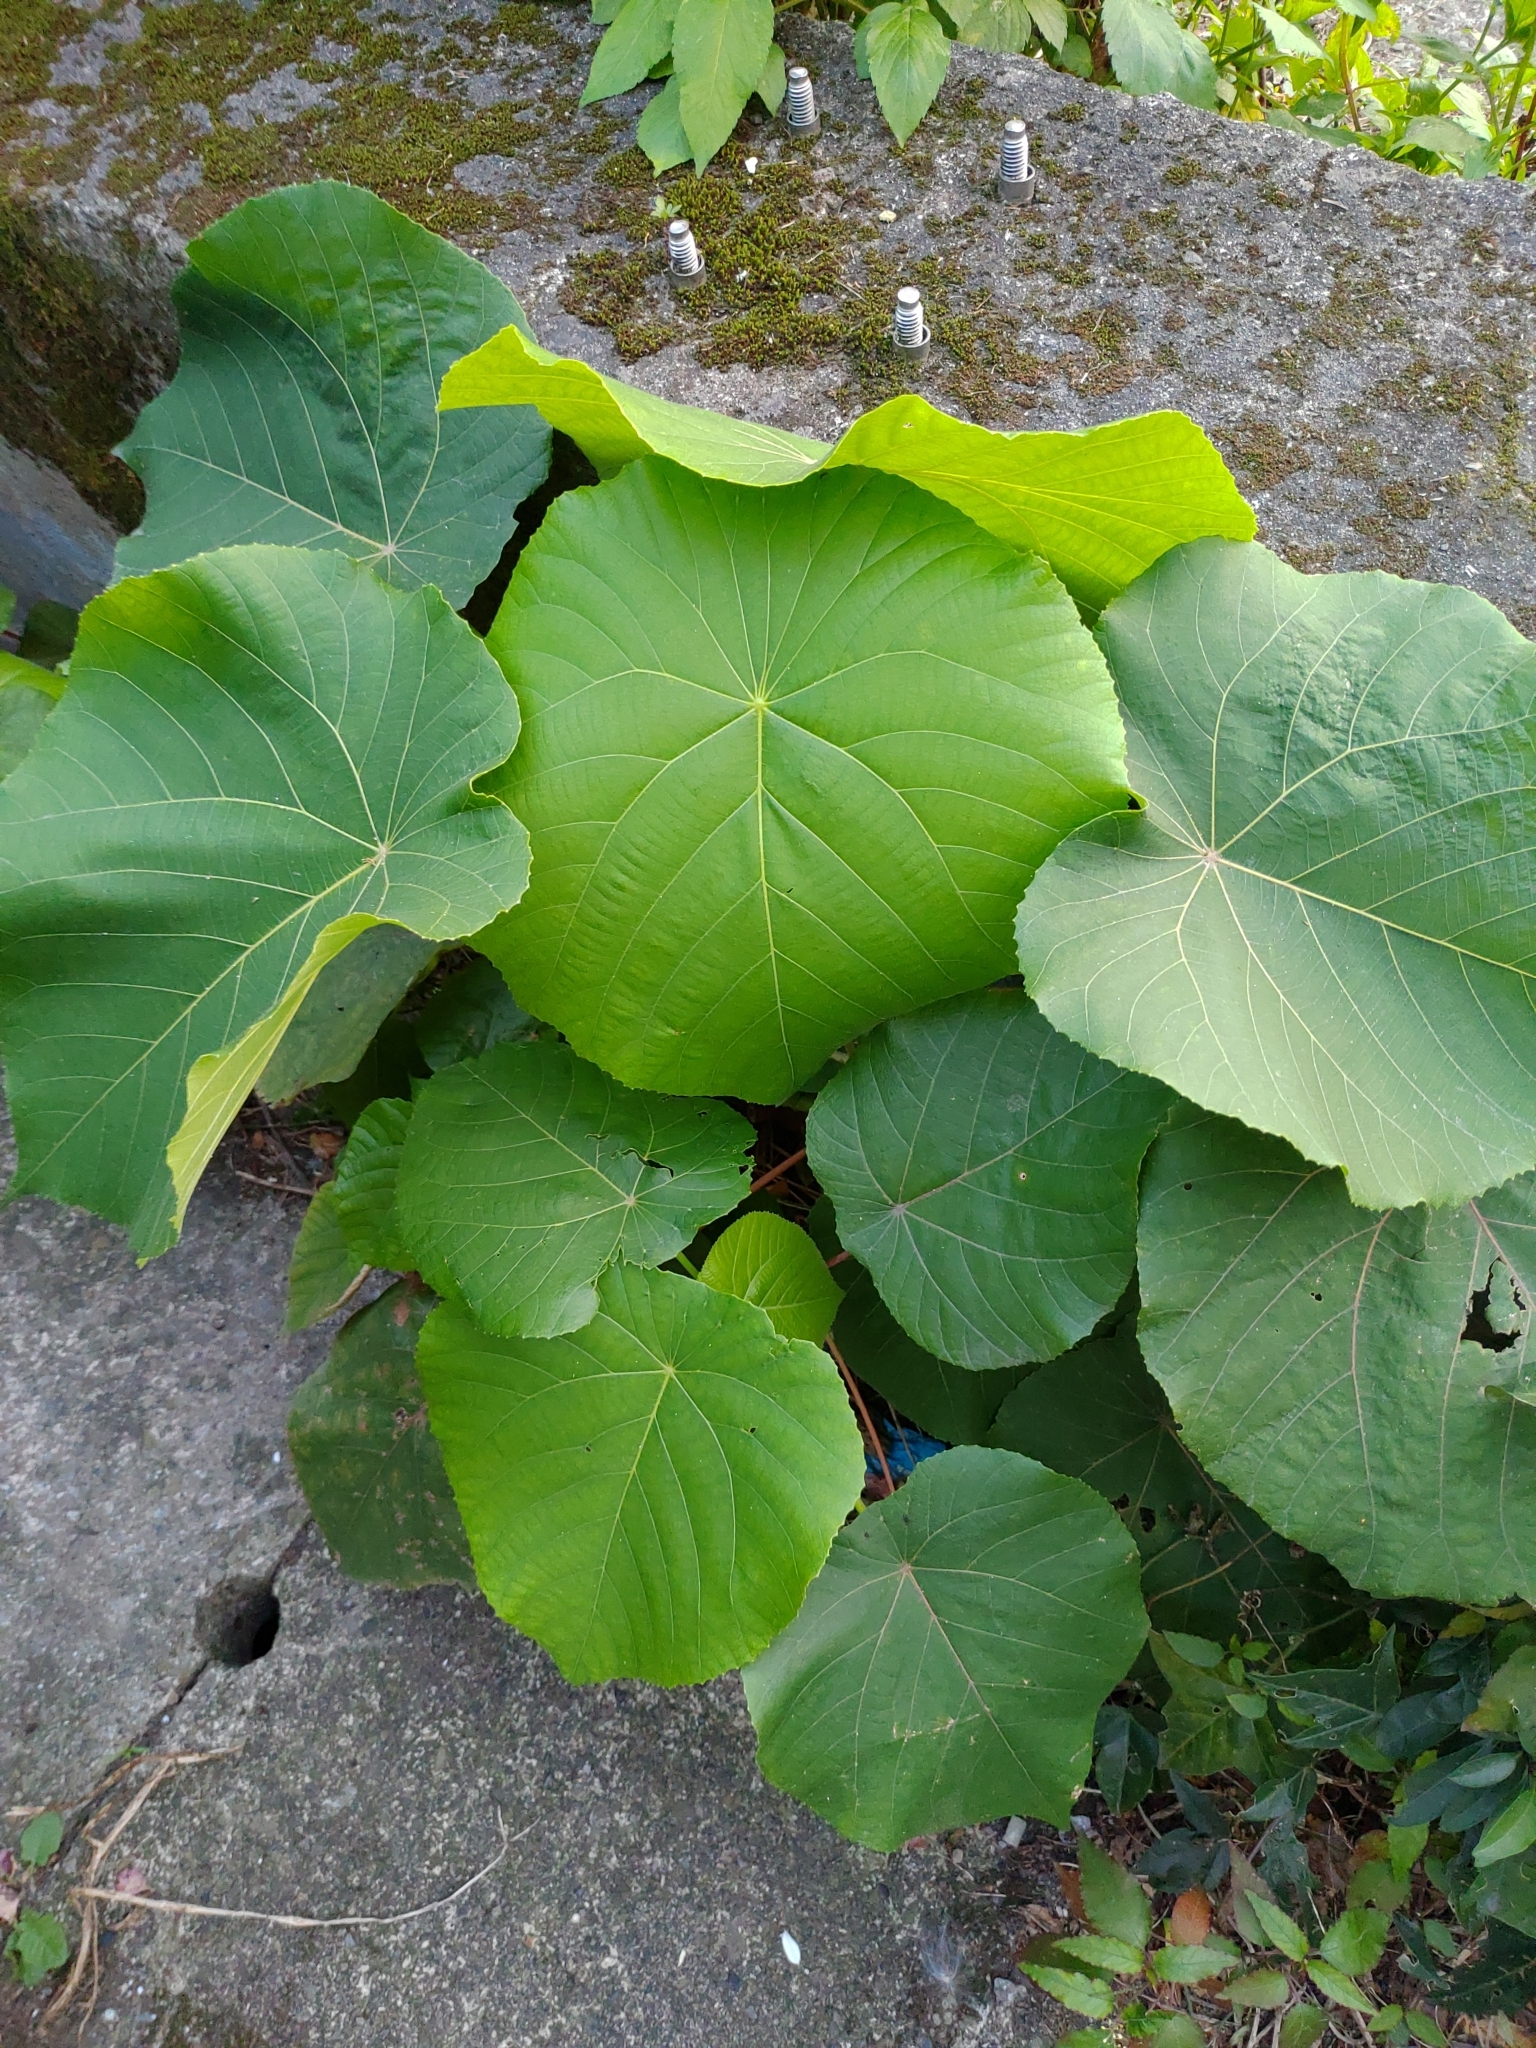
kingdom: Plantae
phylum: Tracheophyta
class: Magnoliopsida
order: Malpighiales
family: Euphorbiaceae
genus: Macaranga
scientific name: Macaranga tanarius
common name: Parasol leaf tree
